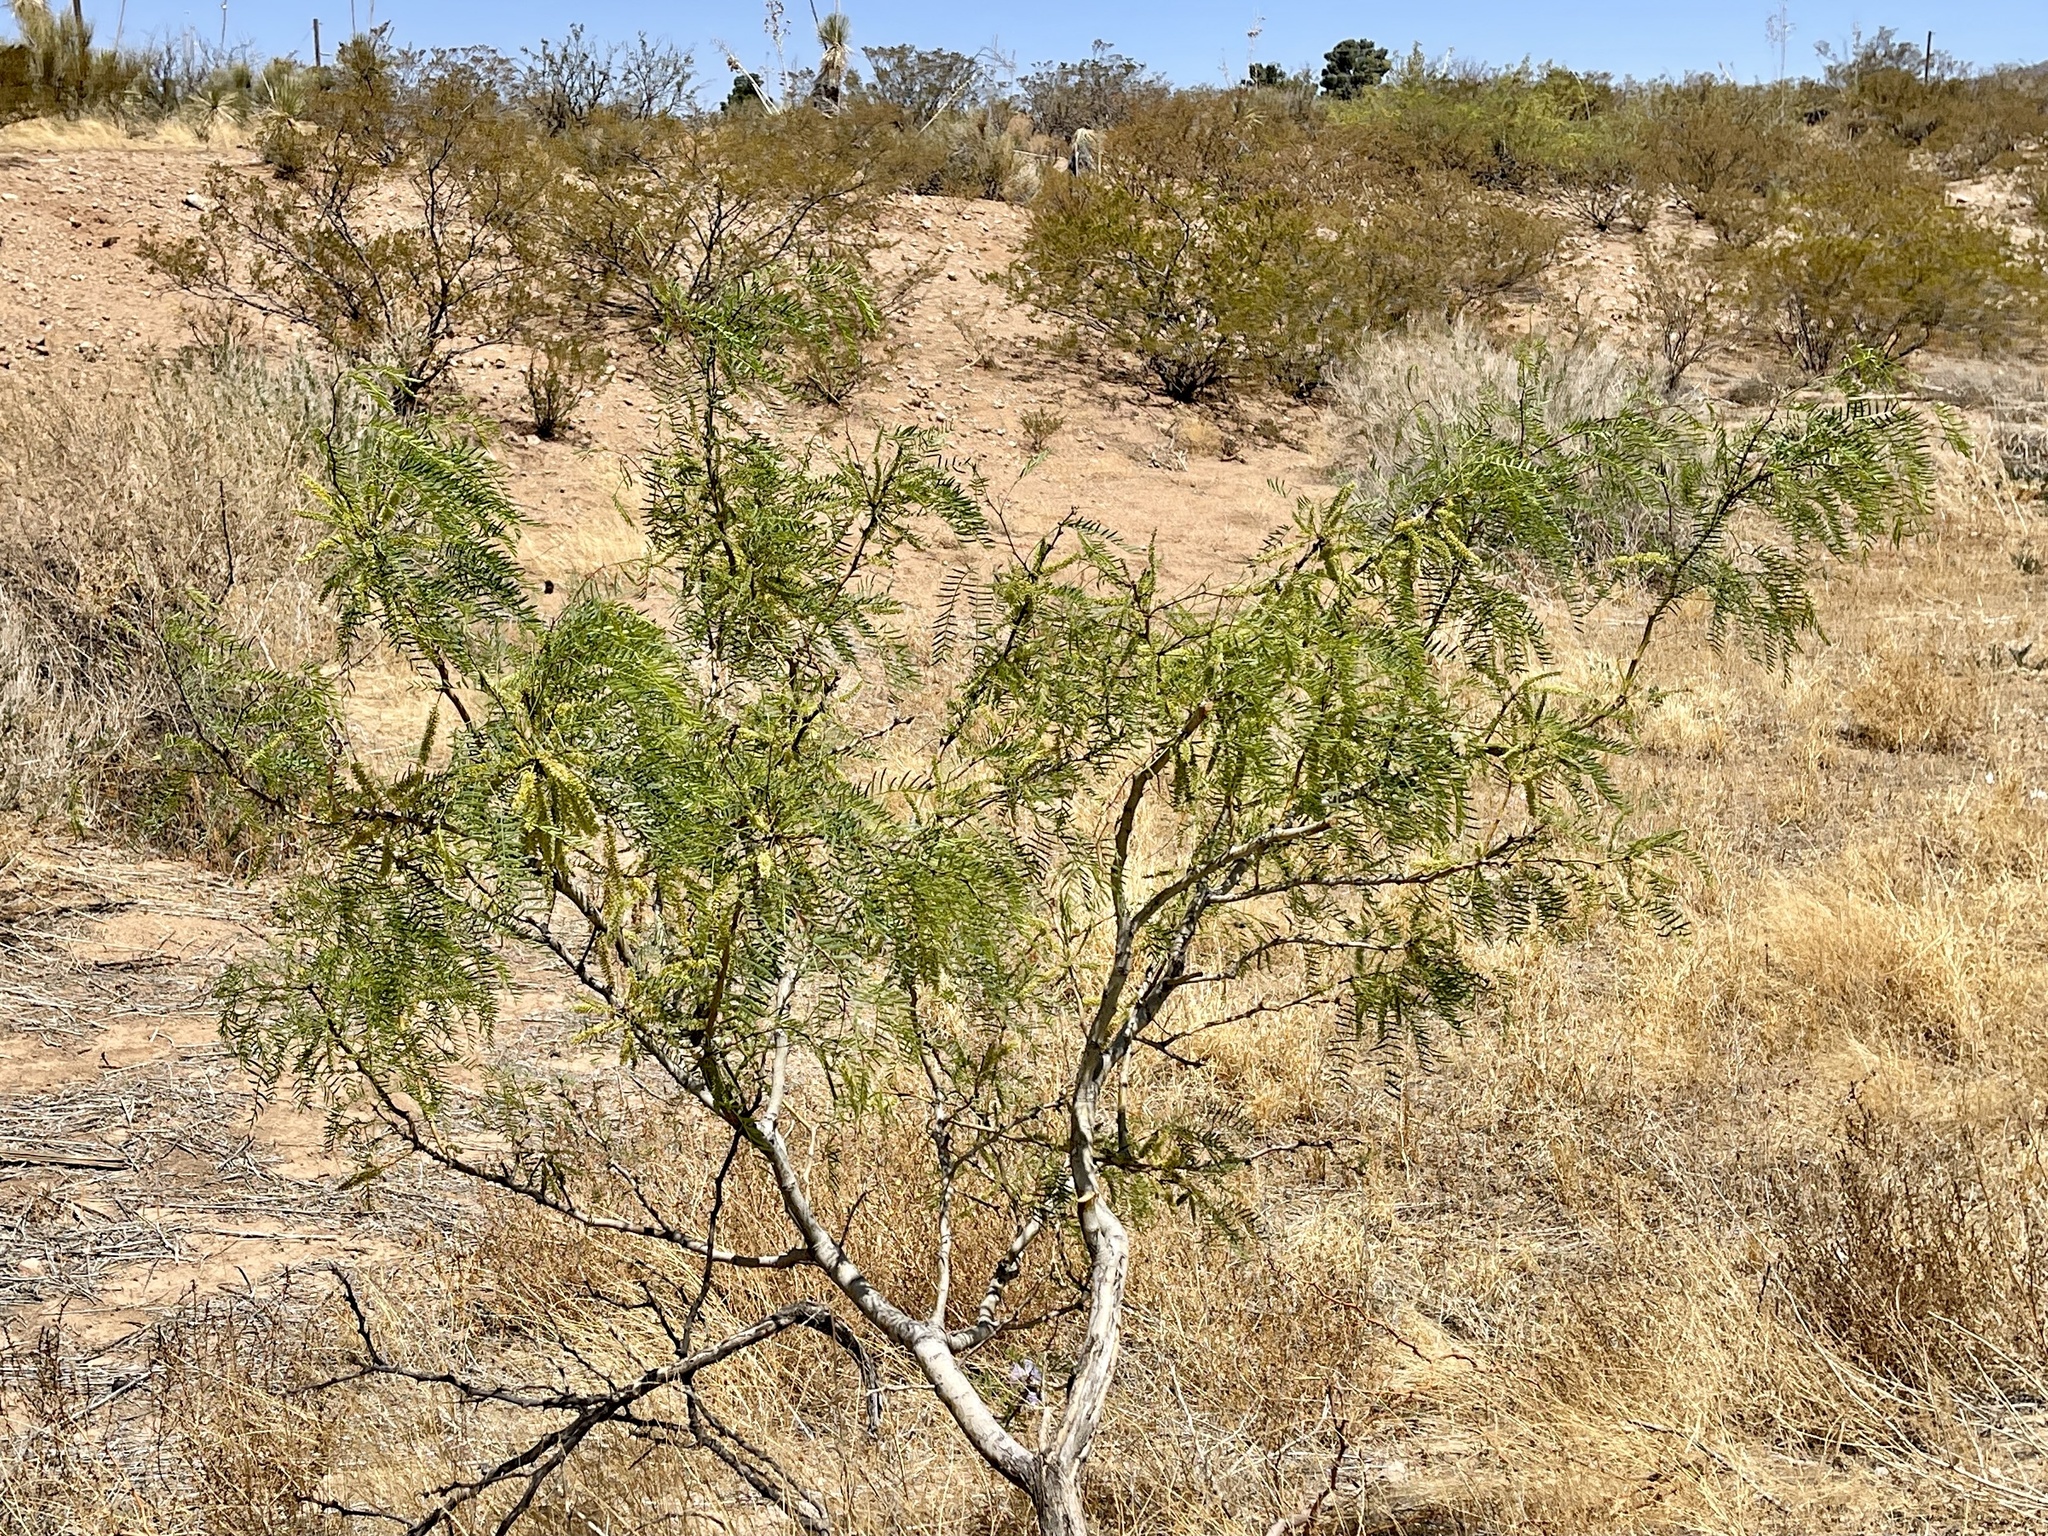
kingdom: Plantae
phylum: Tracheophyta
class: Magnoliopsida
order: Fabales
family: Fabaceae
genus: Prosopis
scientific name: Prosopis glandulosa
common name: Honey mesquite
